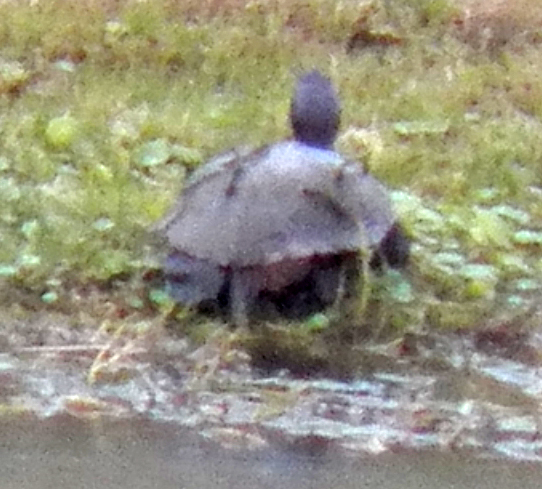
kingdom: Animalia
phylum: Chordata
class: Testudines
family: Emydidae
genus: Trachemys
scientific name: Trachemys scripta
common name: Slider
